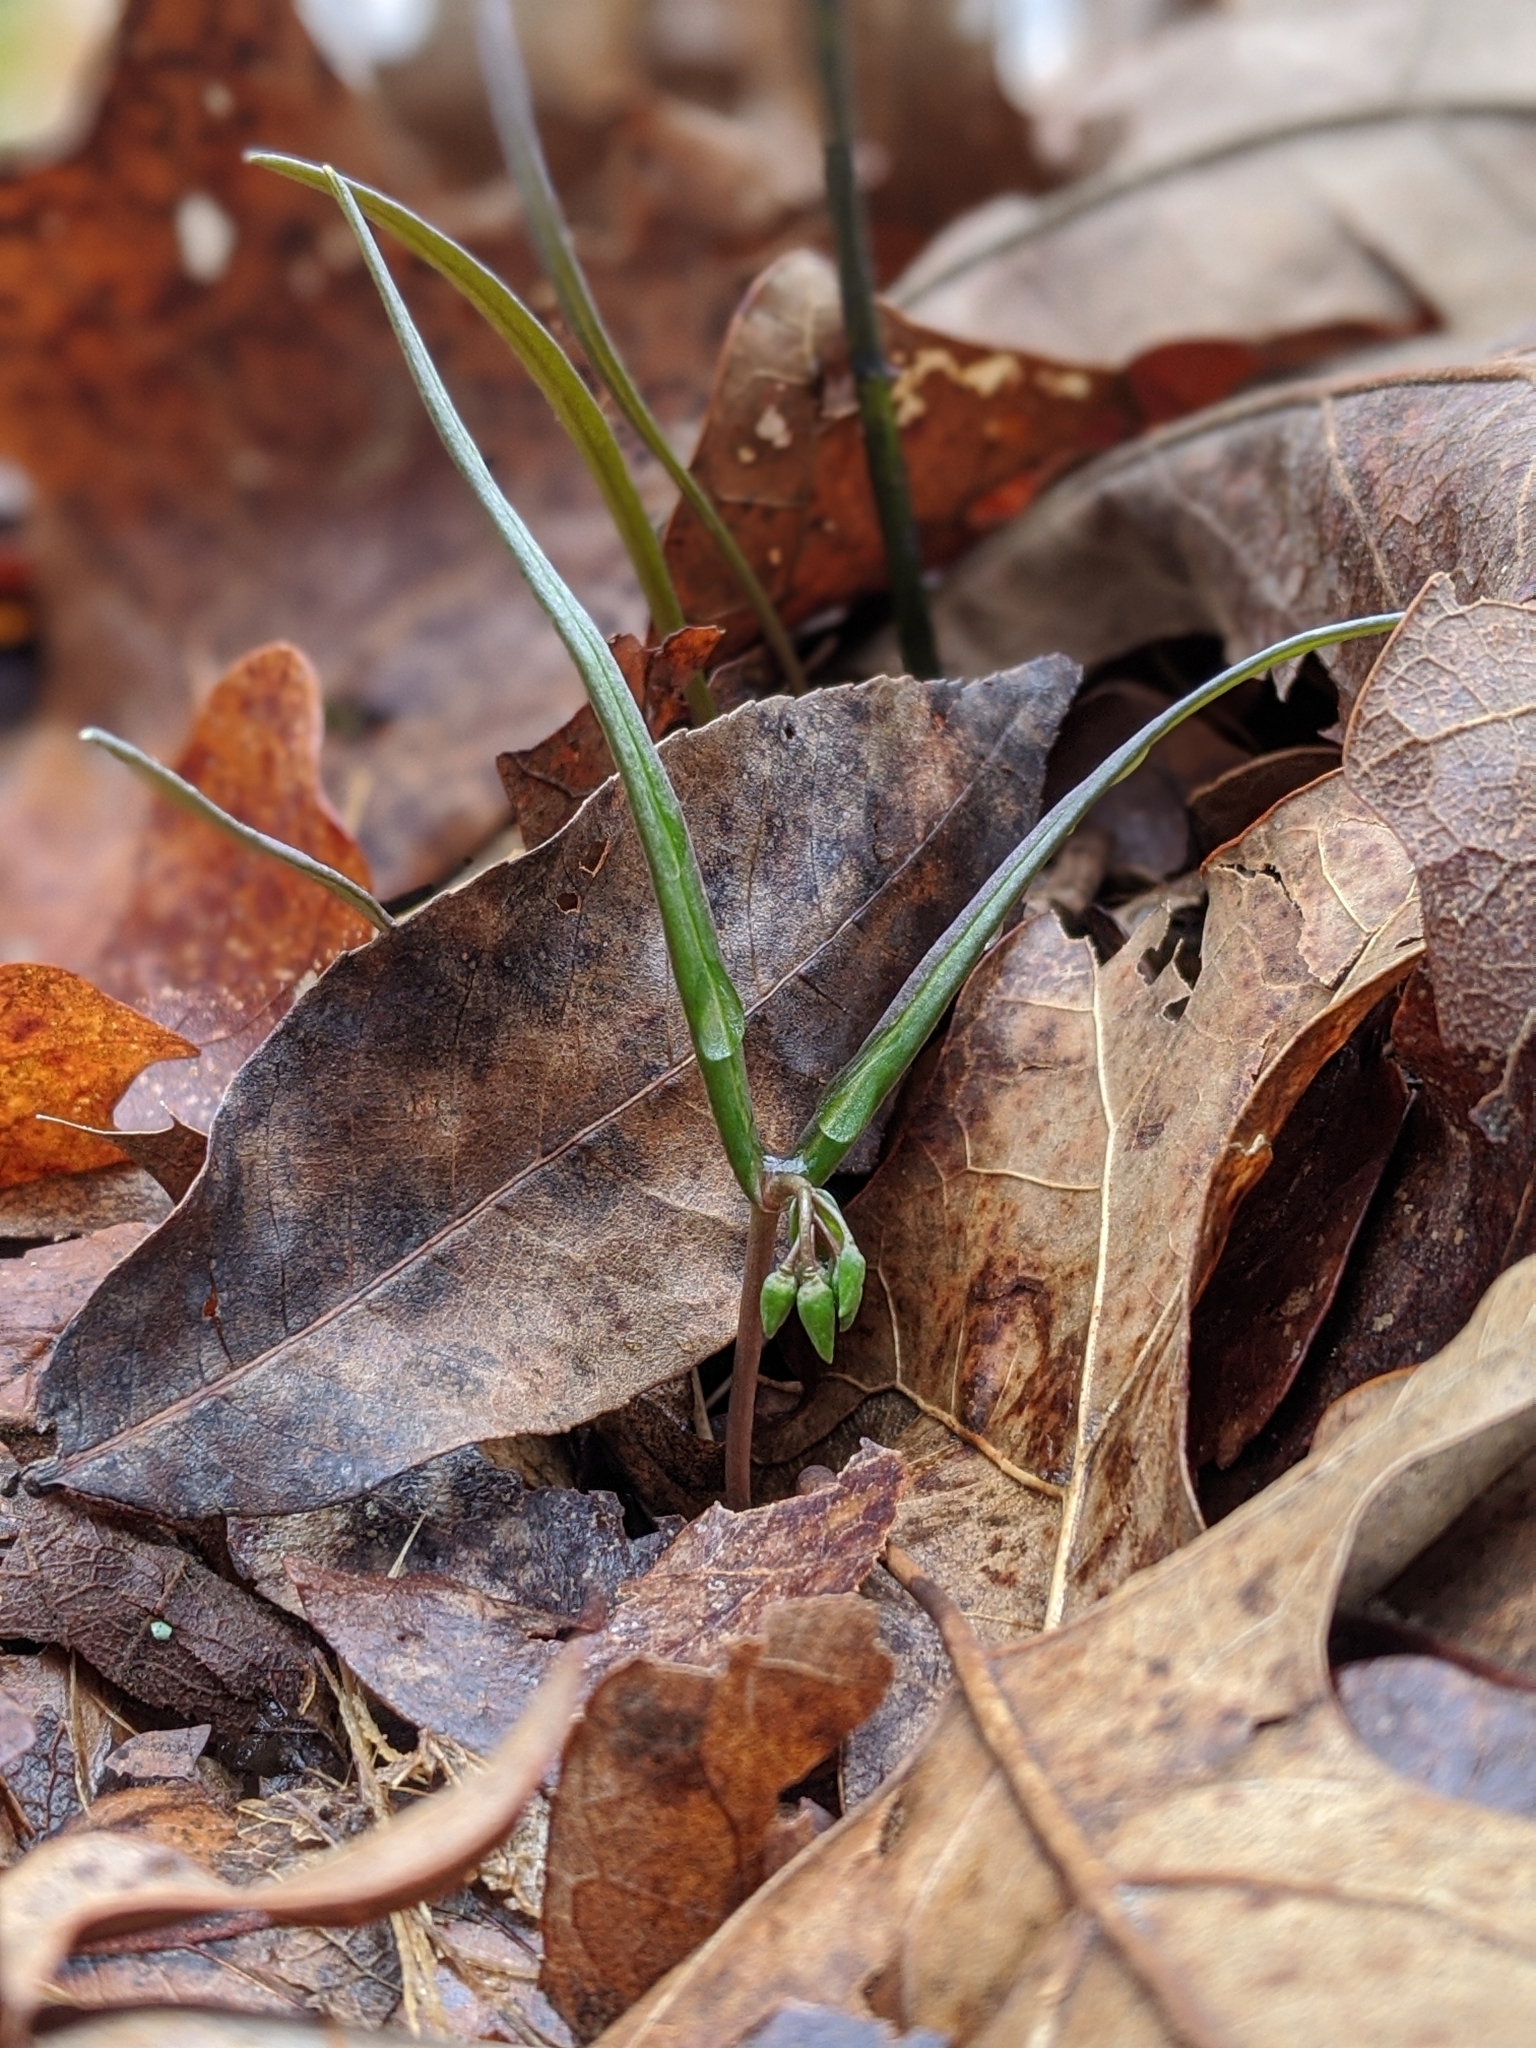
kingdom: Plantae
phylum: Tracheophyta
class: Magnoliopsida
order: Caryophyllales
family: Montiaceae
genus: Claytonia
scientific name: Claytonia virginica
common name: Virginia springbeauty
